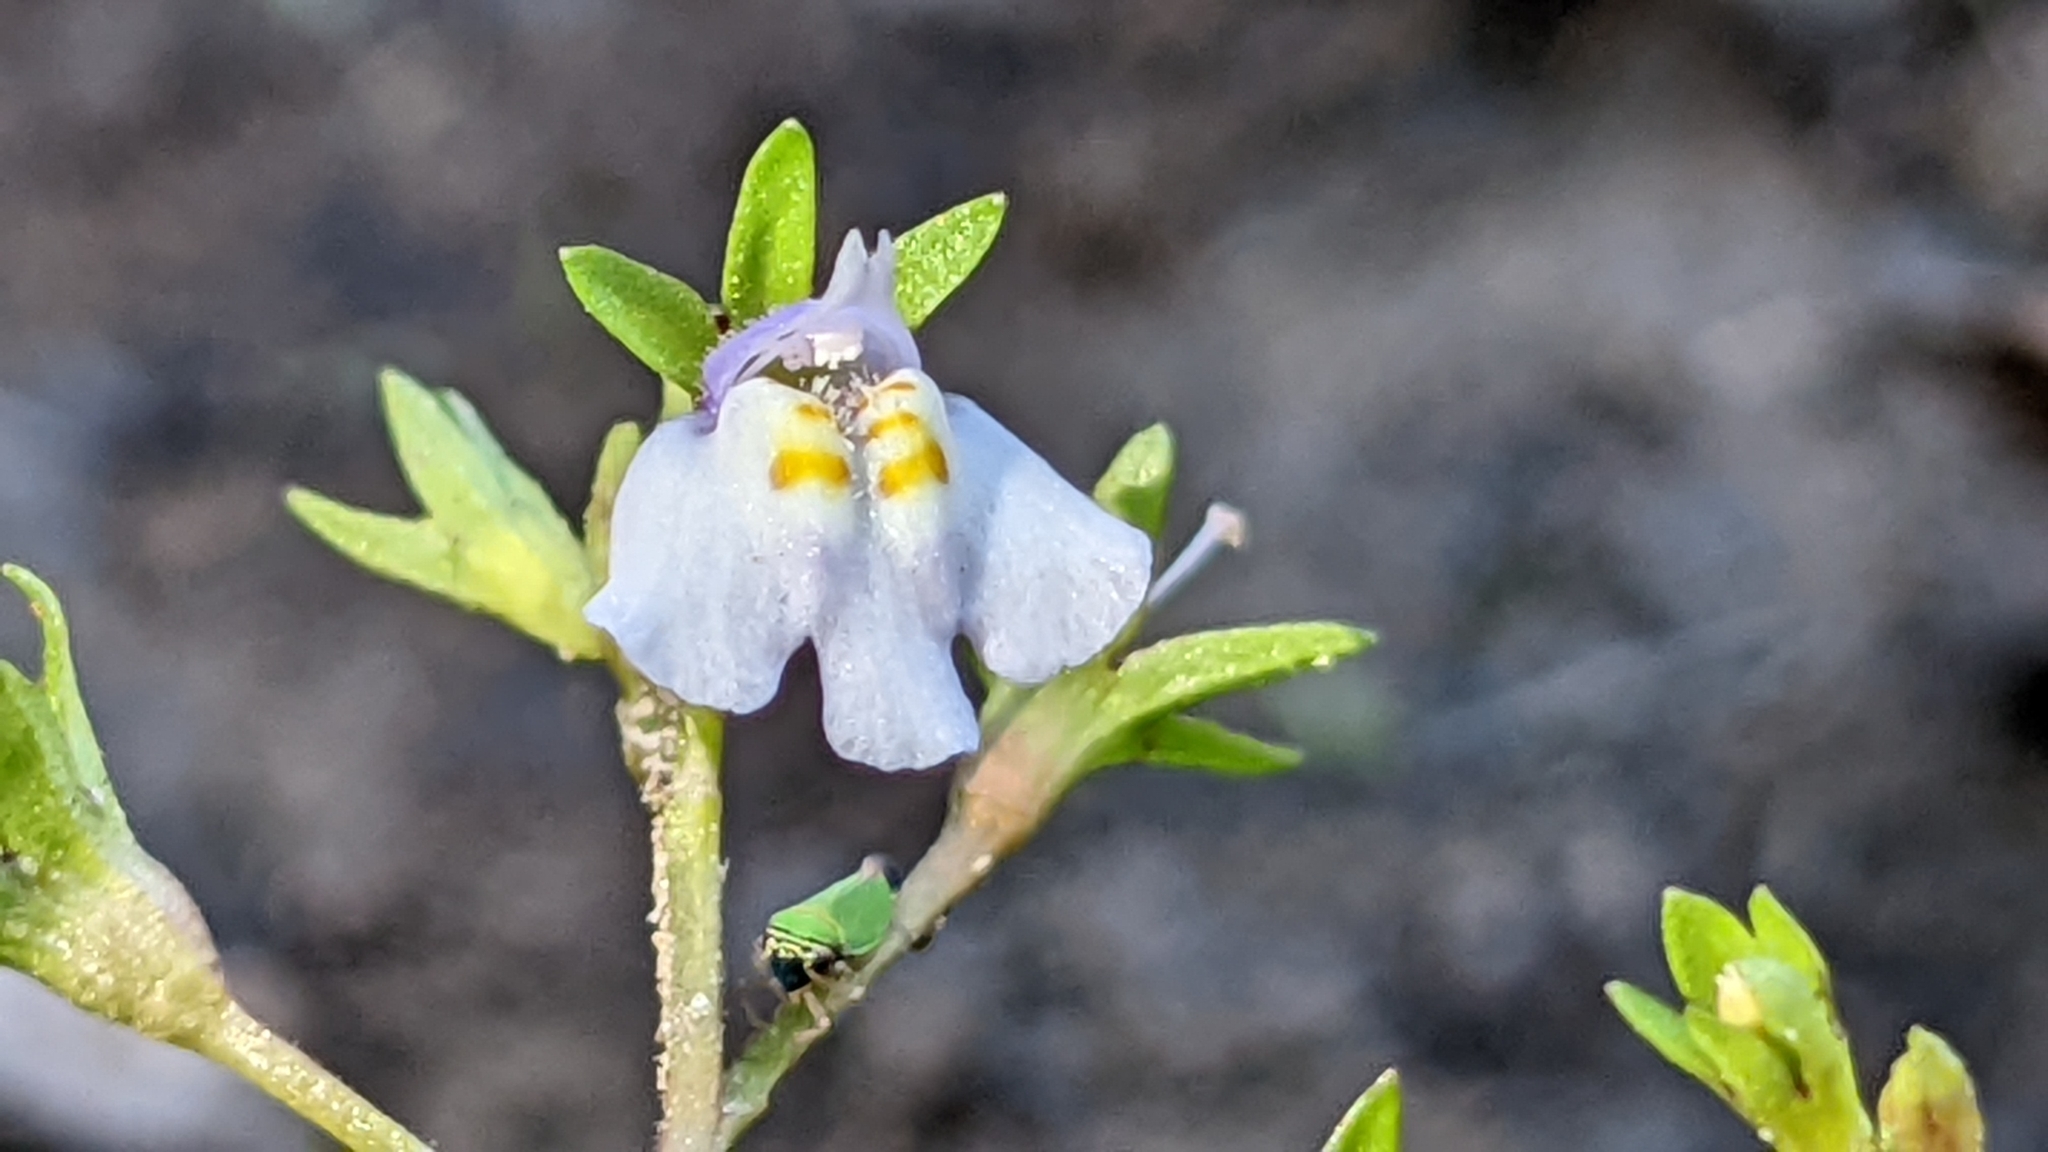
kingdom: Plantae
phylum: Tracheophyta
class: Magnoliopsida
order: Lamiales
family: Mazaceae
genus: Mazus
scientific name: Mazus pumilus
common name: Japanese mazus
